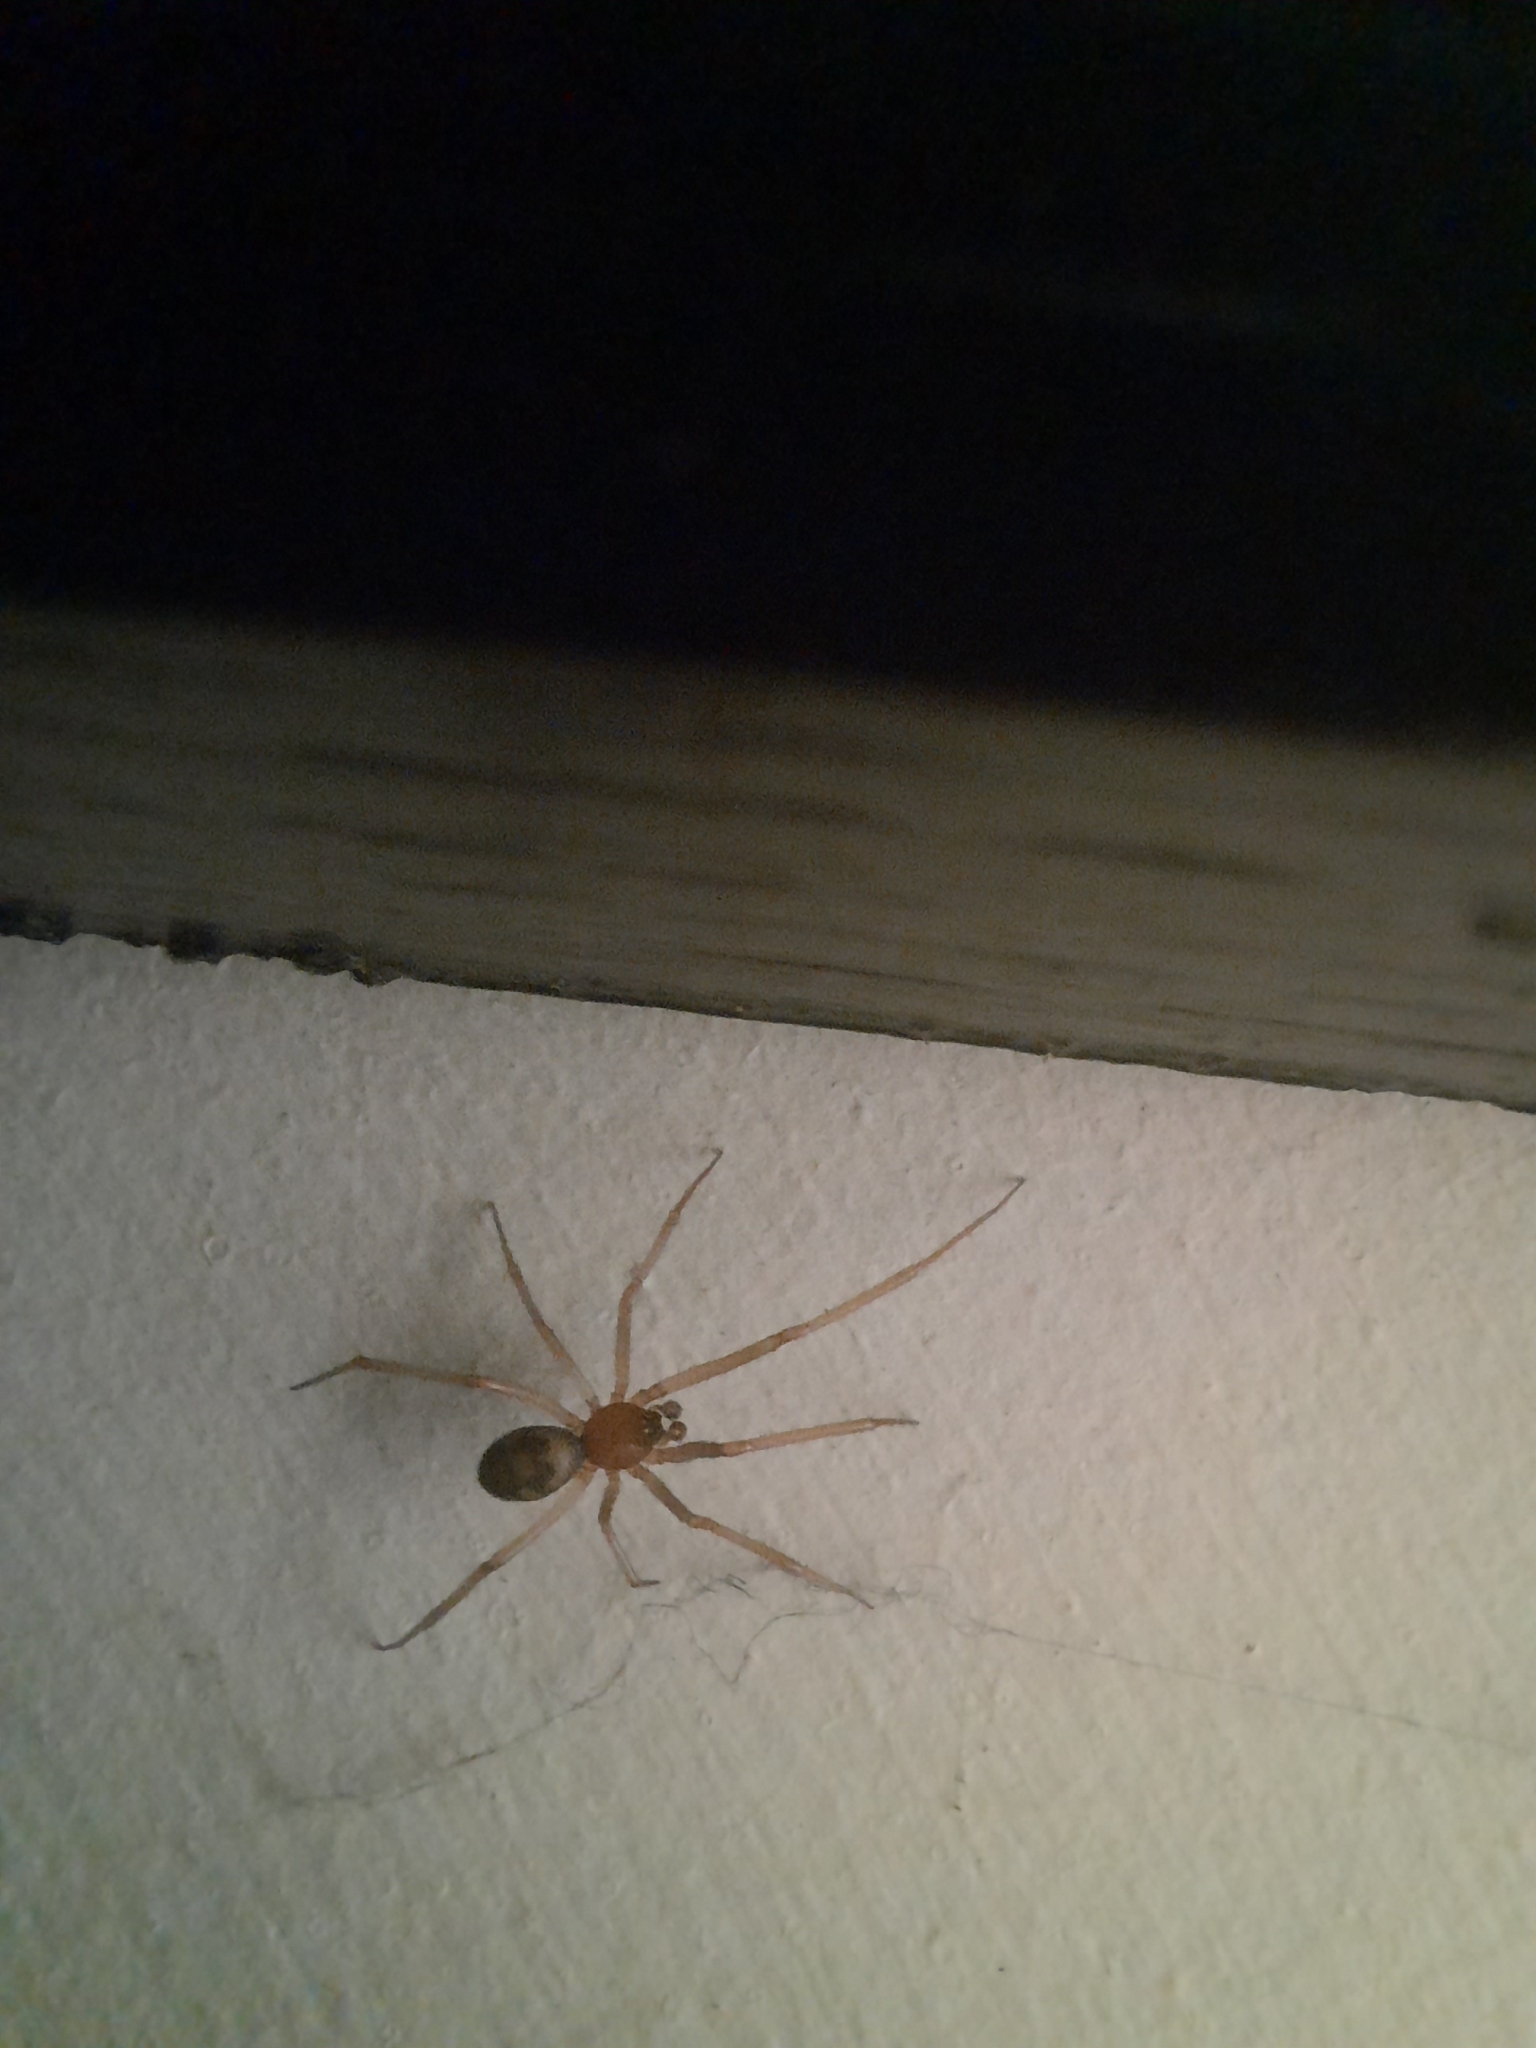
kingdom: Animalia
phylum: Arthropoda
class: Arachnida
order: Araneae
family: Theridiidae
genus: Steatoda
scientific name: Steatoda grossa
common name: False black widow
